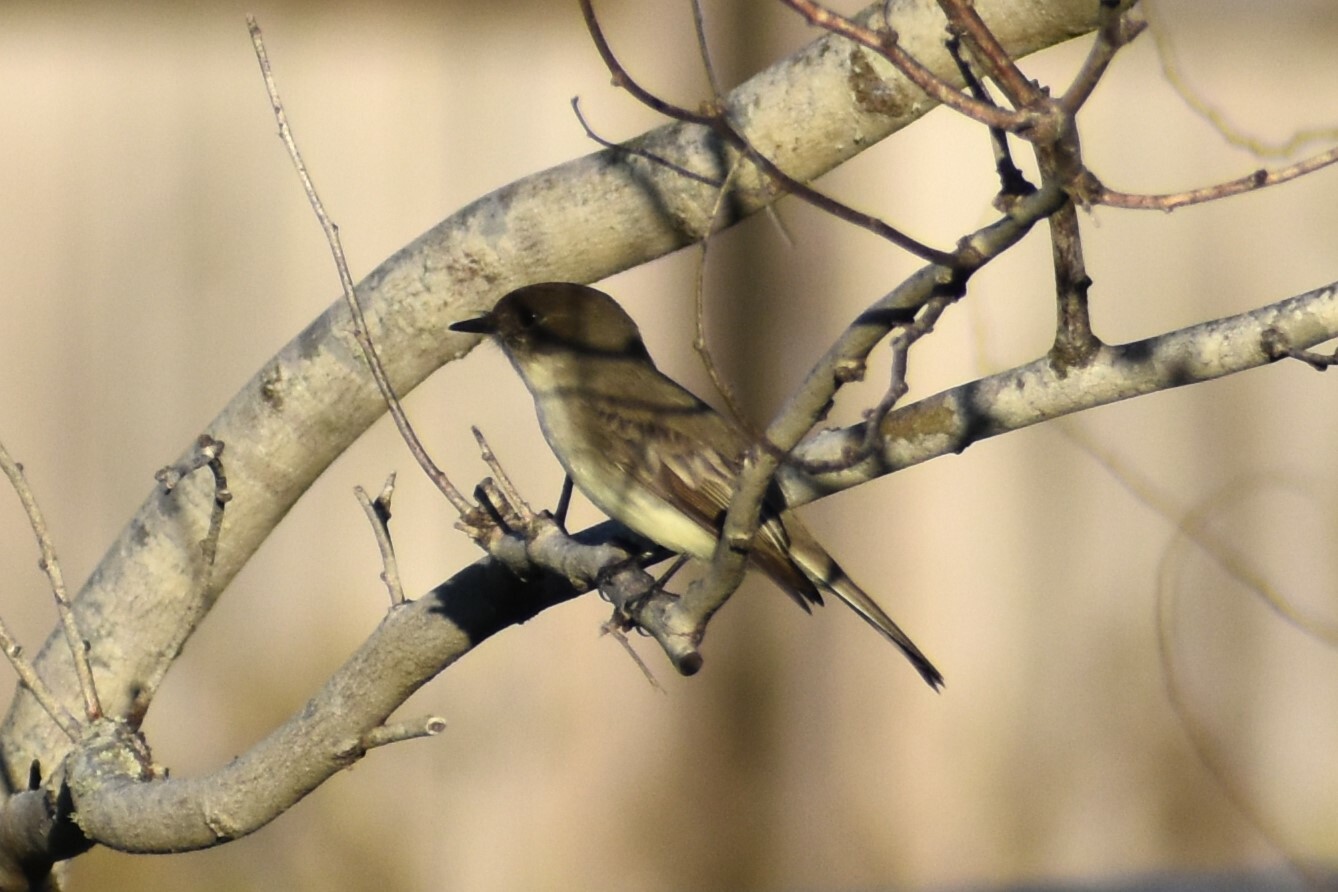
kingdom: Animalia
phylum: Chordata
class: Aves
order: Passeriformes
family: Tyrannidae
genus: Sayornis
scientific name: Sayornis phoebe
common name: Eastern phoebe
